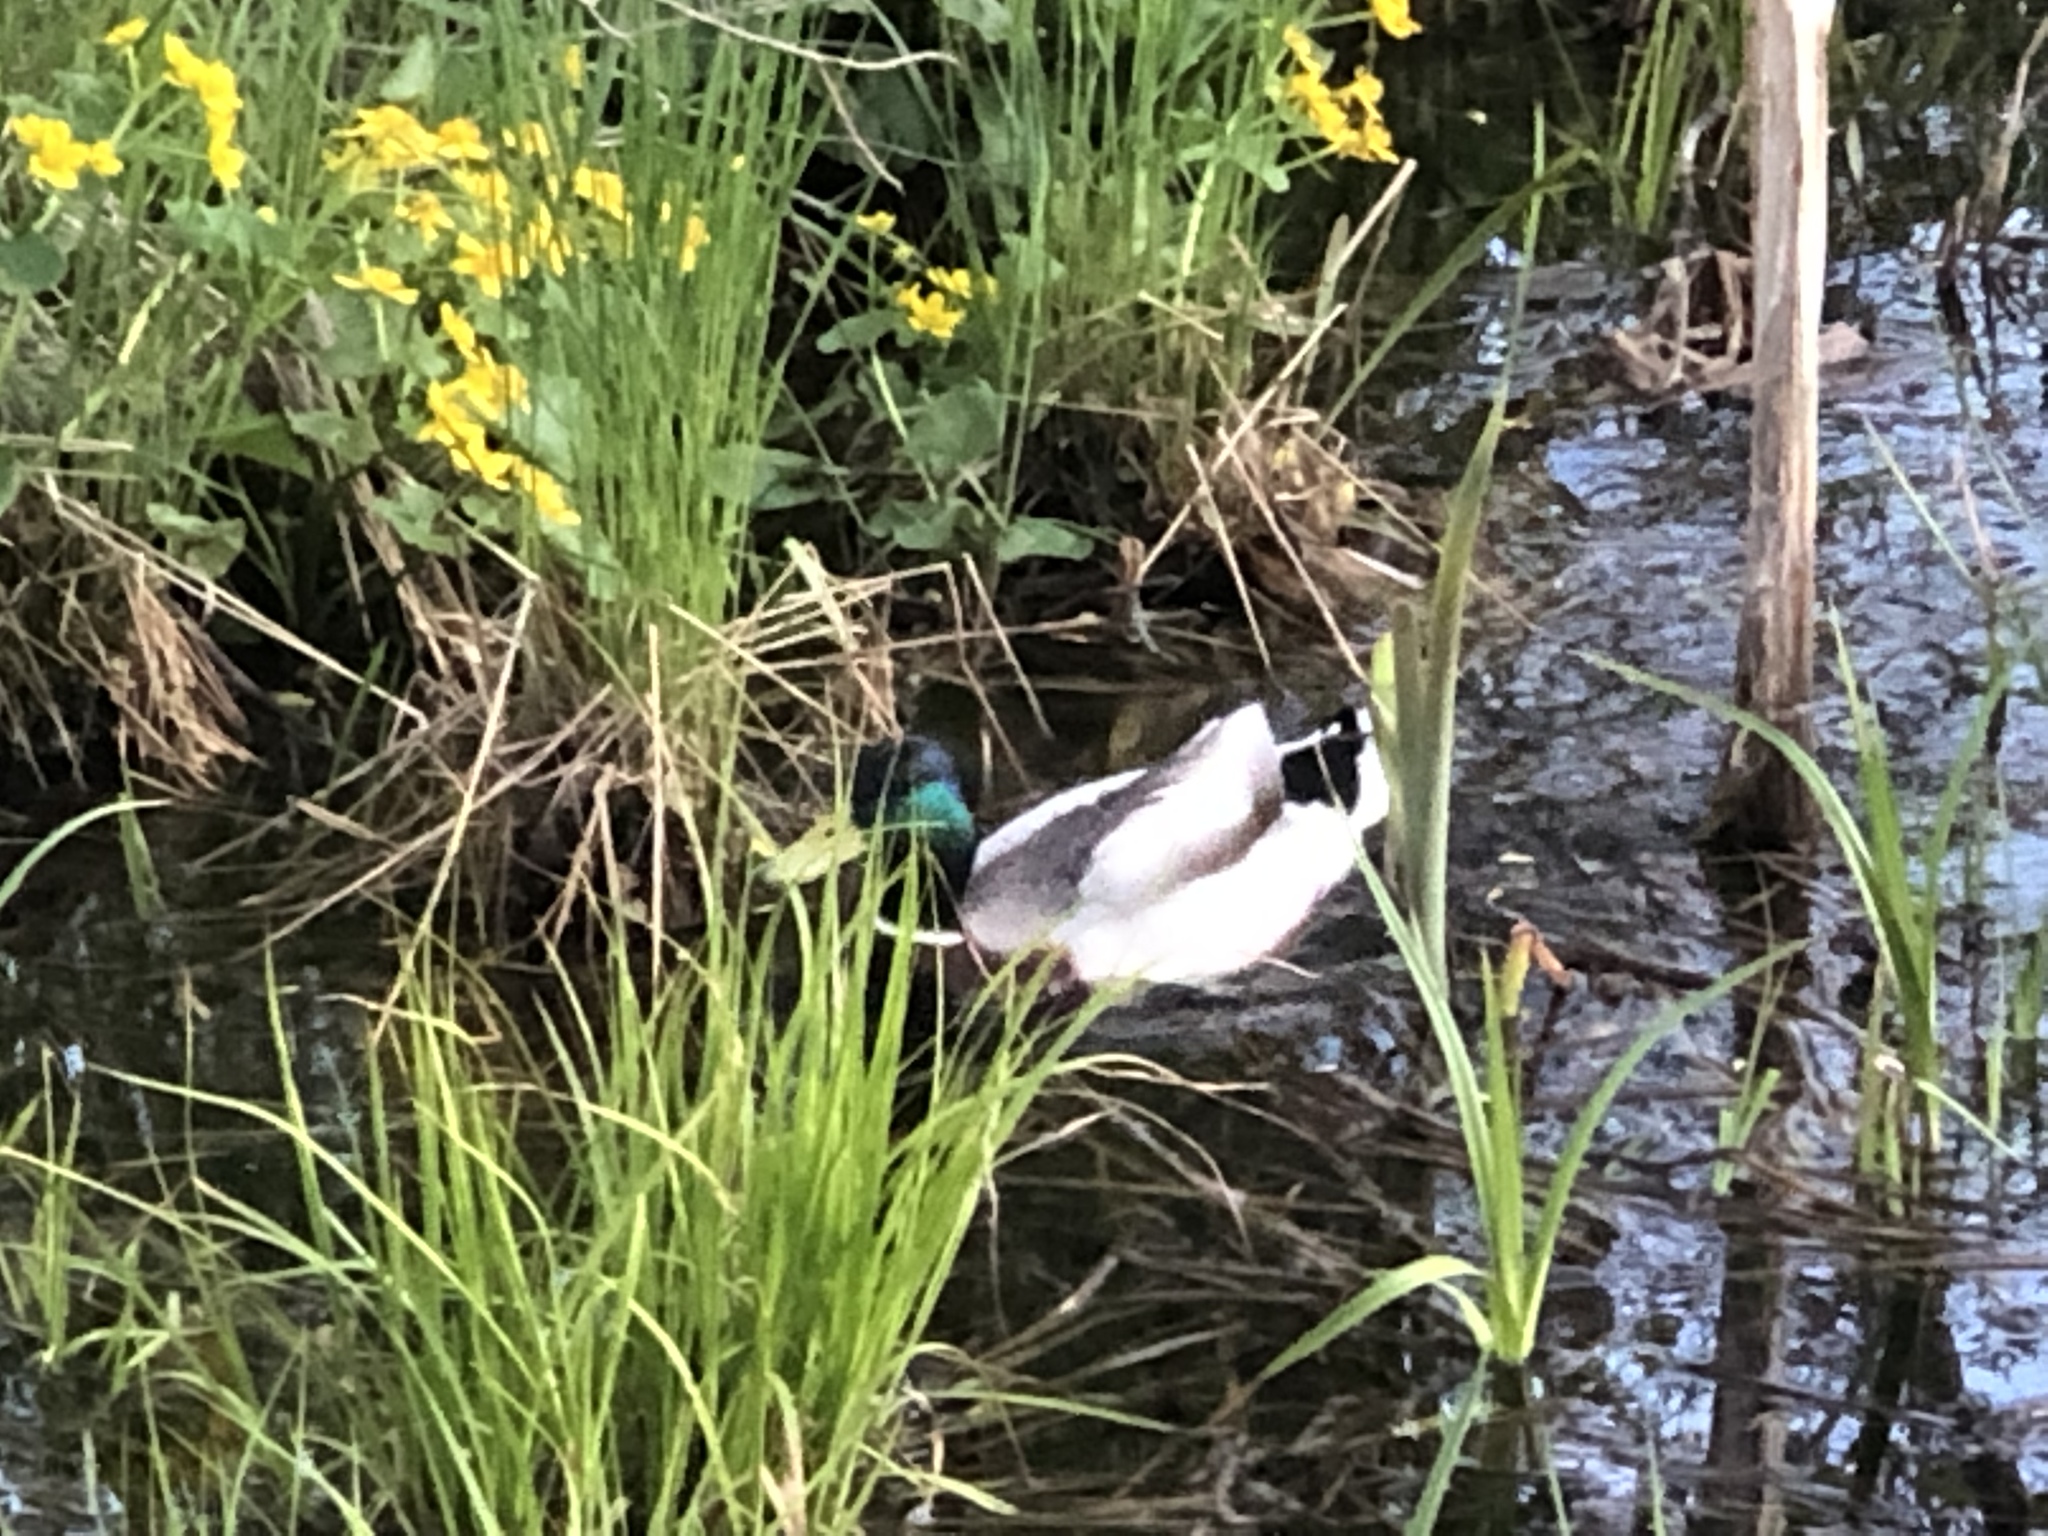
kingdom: Animalia
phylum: Chordata
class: Aves
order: Anseriformes
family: Anatidae
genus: Anas
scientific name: Anas platyrhynchos
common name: Mallard
